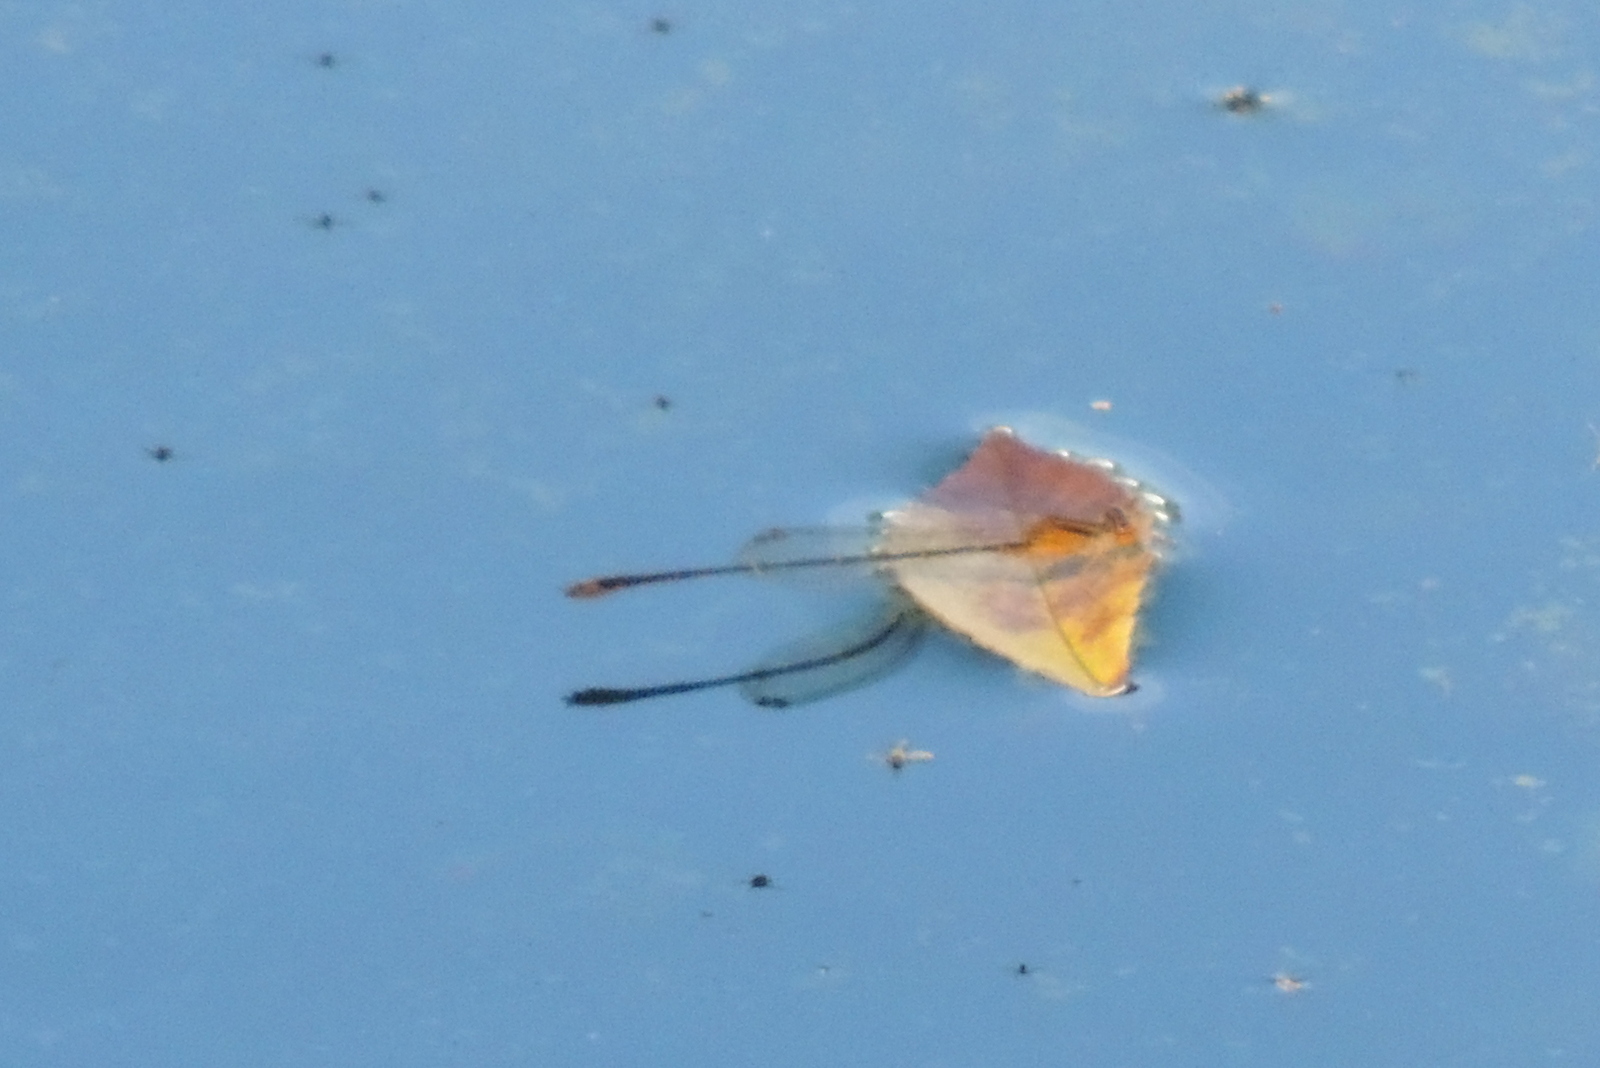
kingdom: Animalia
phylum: Arthropoda
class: Insecta
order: Odonata
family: Coenagrionidae
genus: Enallagma
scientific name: Enallagma signatum
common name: Orange bluet
